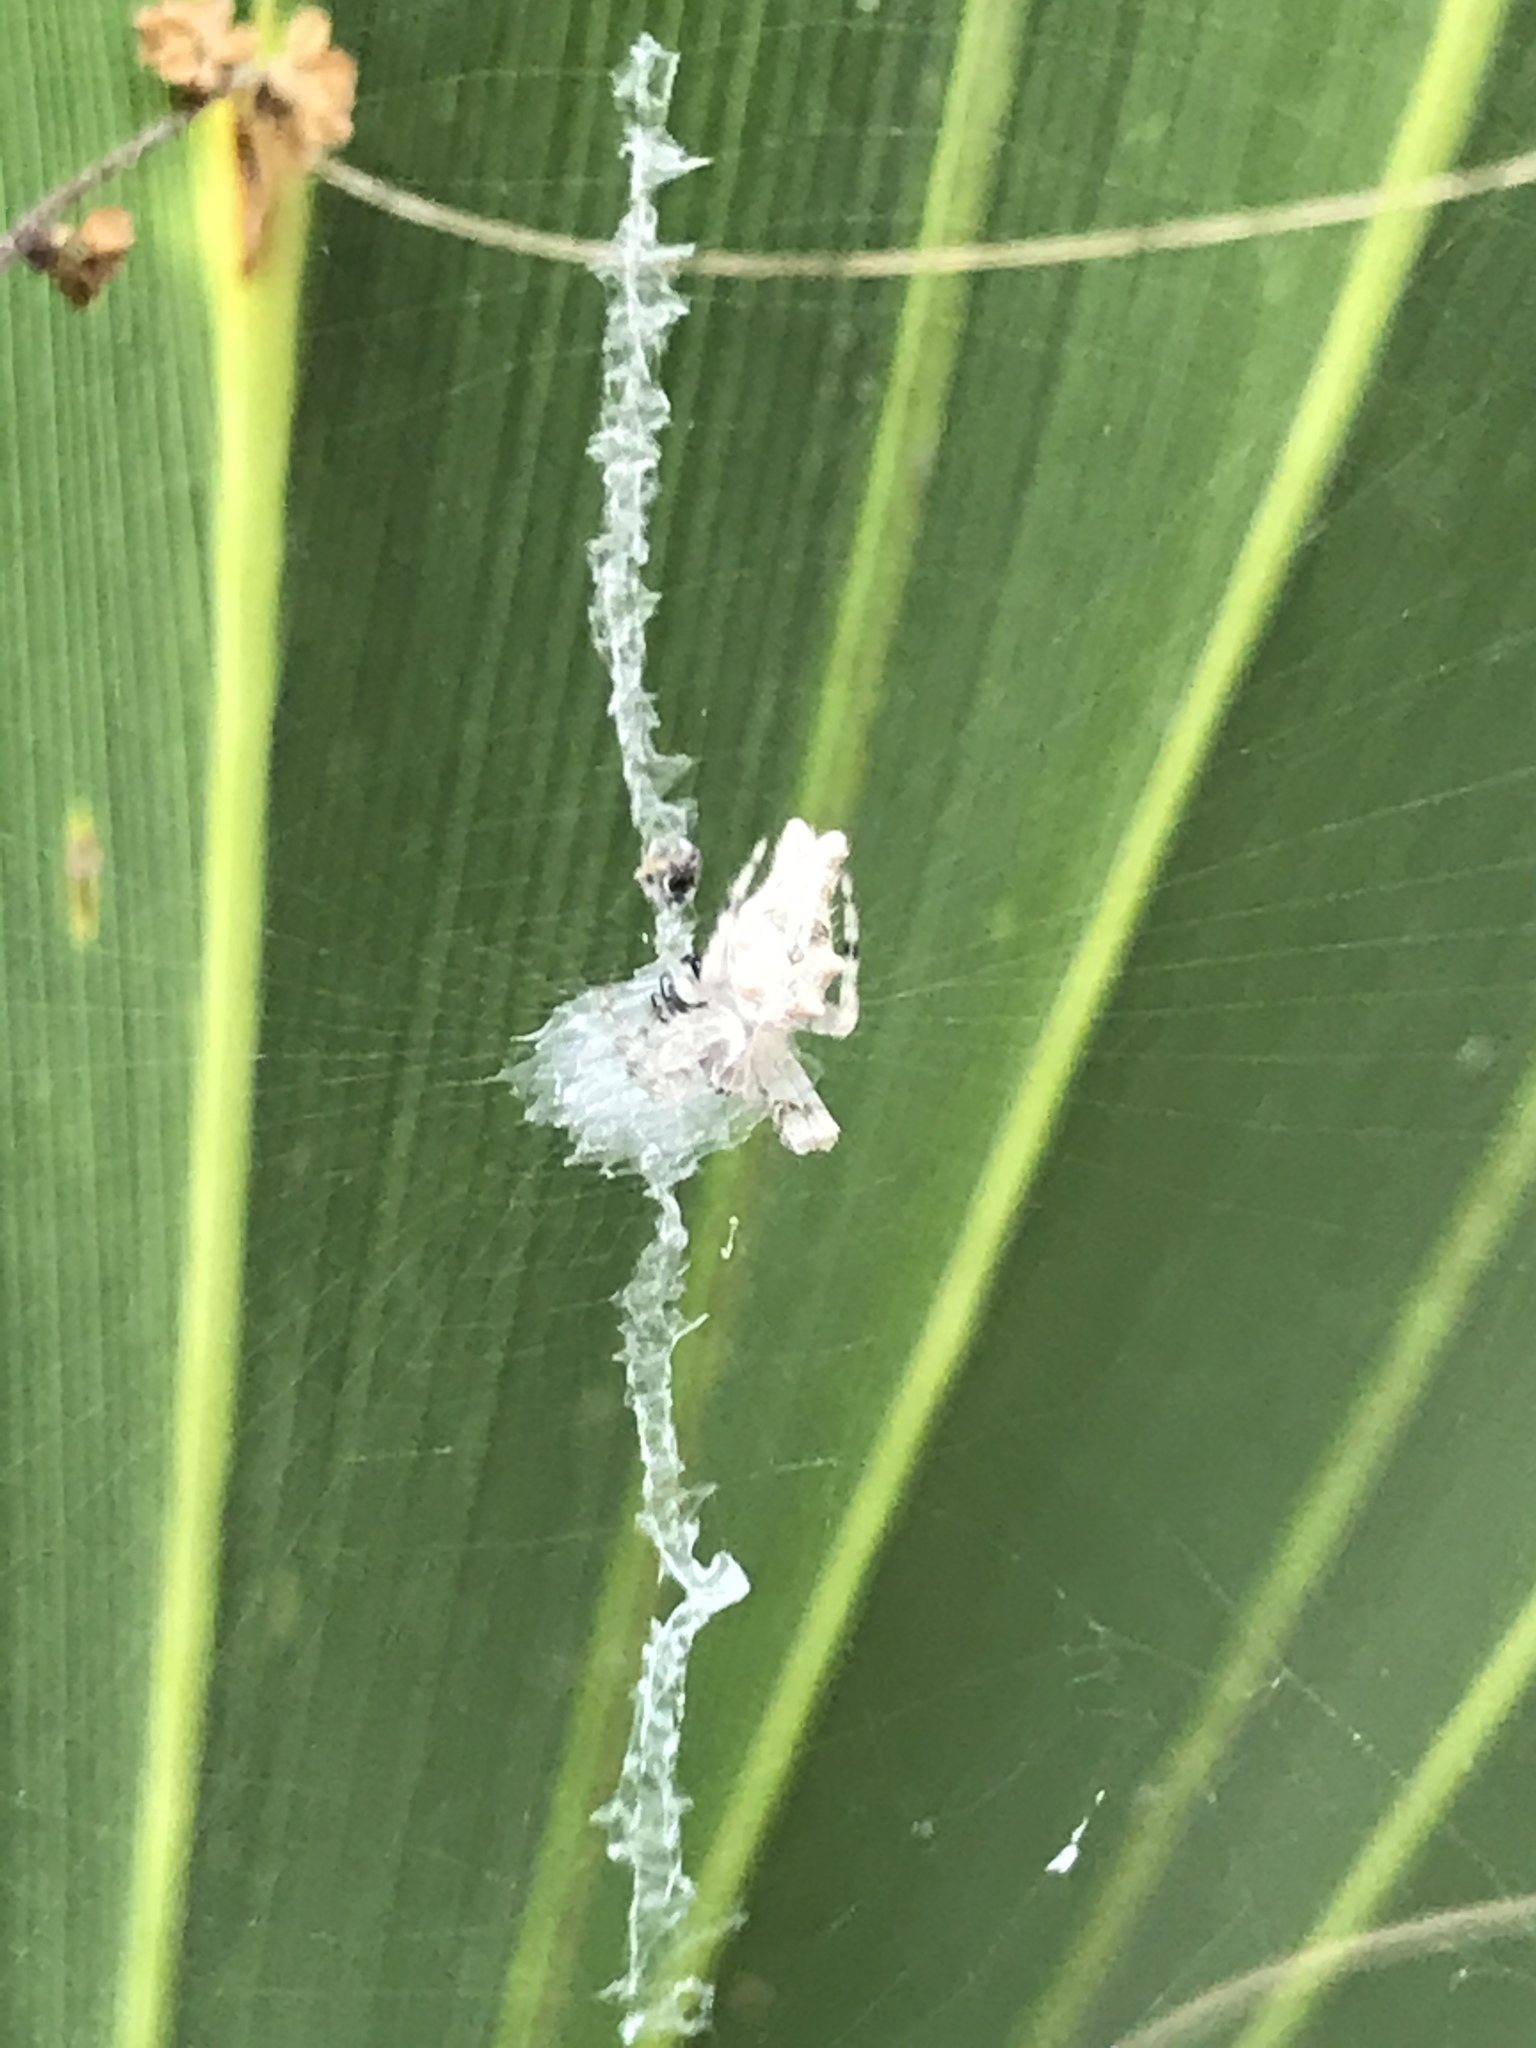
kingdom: Animalia
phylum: Arthropoda
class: Arachnida
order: Araneae
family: Araneidae
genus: Allocyclosa
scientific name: Allocyclosa bifurca
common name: Orb weavers
